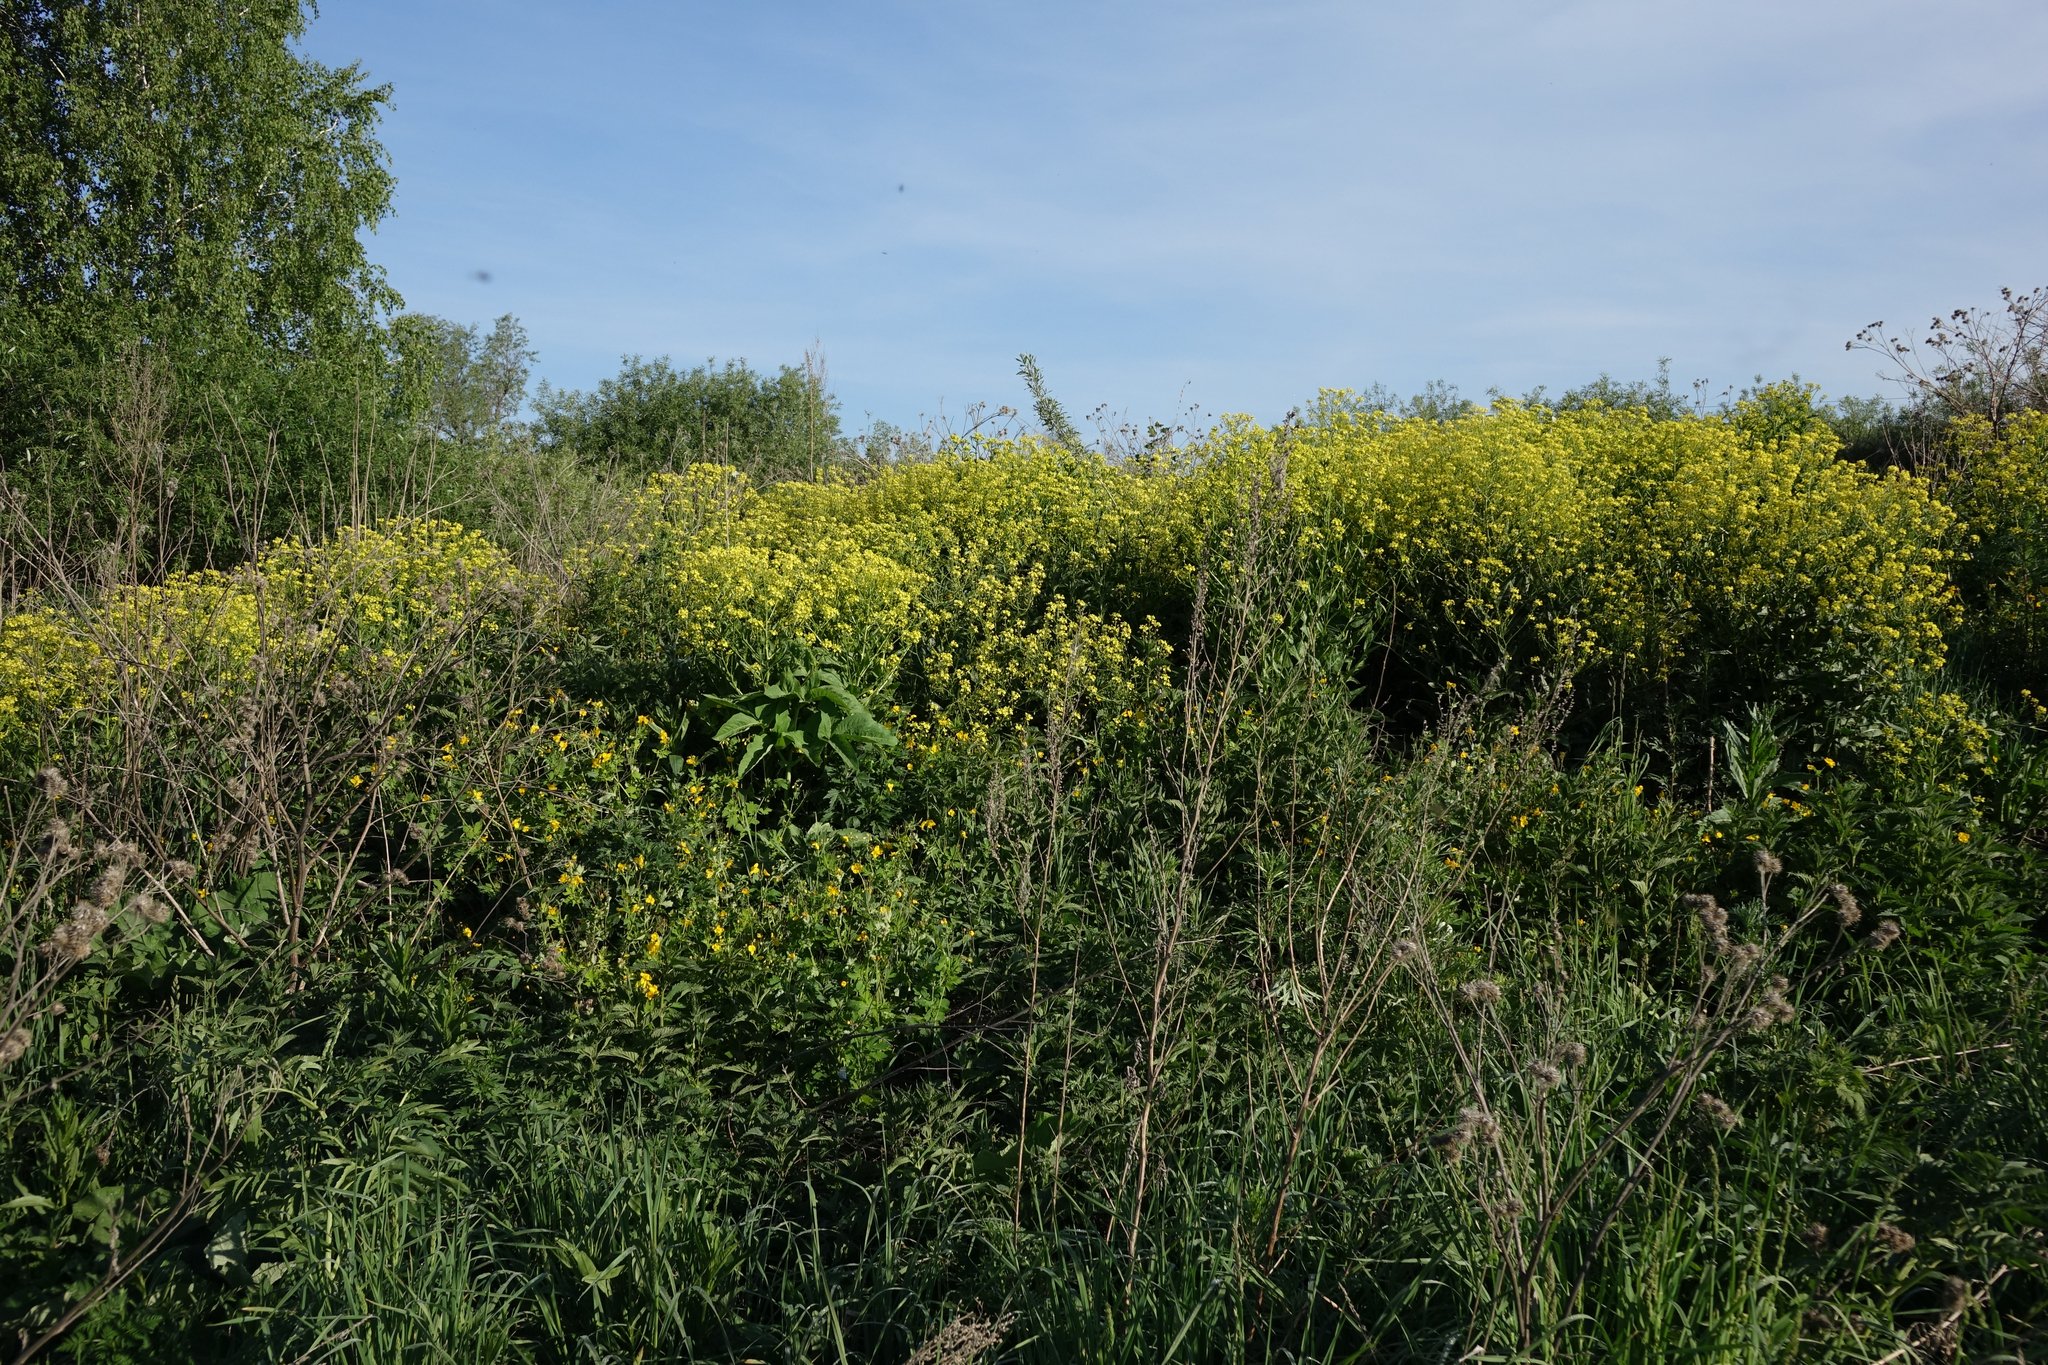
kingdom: Plantae
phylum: Tracheophyta
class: Magnoliopsida
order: Brassicales
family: Brassicaceae
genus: Bunias
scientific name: Bunias orientalis
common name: Warty-cabbage
